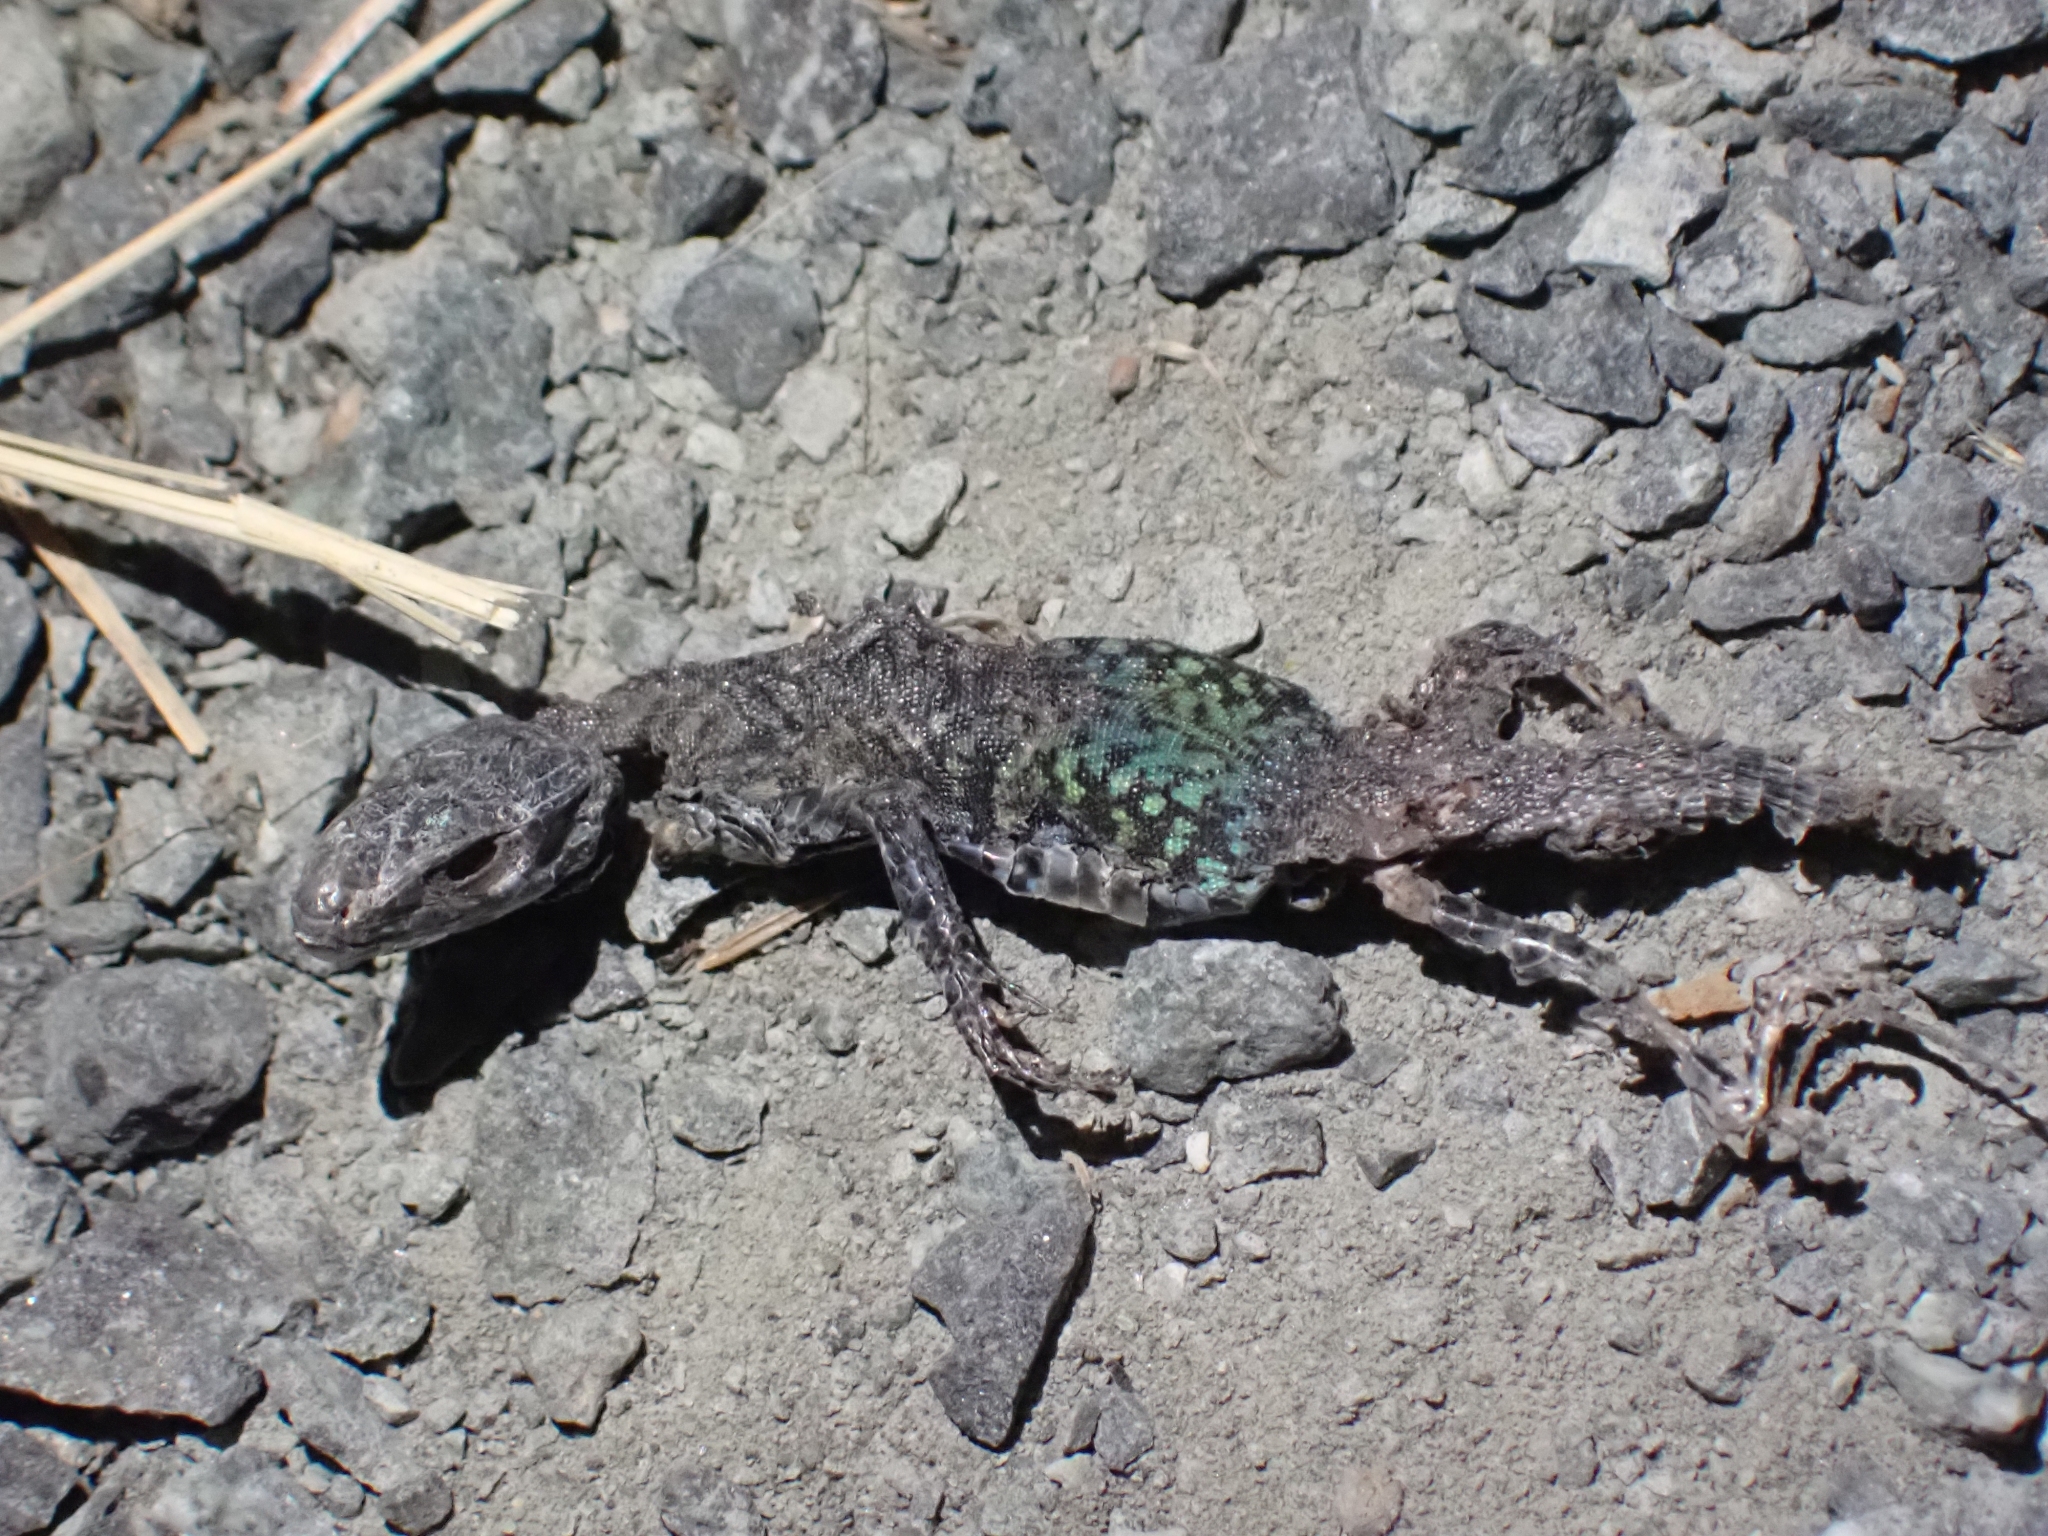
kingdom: Animalia
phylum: Chordata
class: Squamata
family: Lacertidae
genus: Podarcis
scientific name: Podarcis muralis
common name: Common wall lizard
